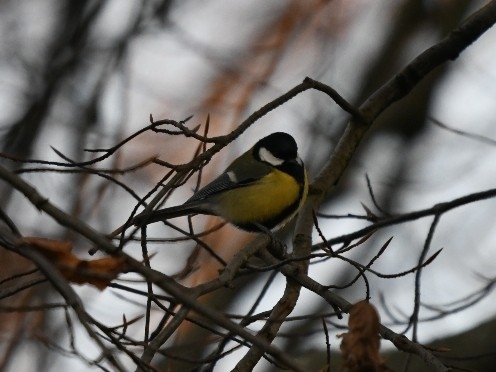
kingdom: Animalia
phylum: Chordata
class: Aves
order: Passeriformes
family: Paridae
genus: Parus
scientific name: Parus major
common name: Great tit
